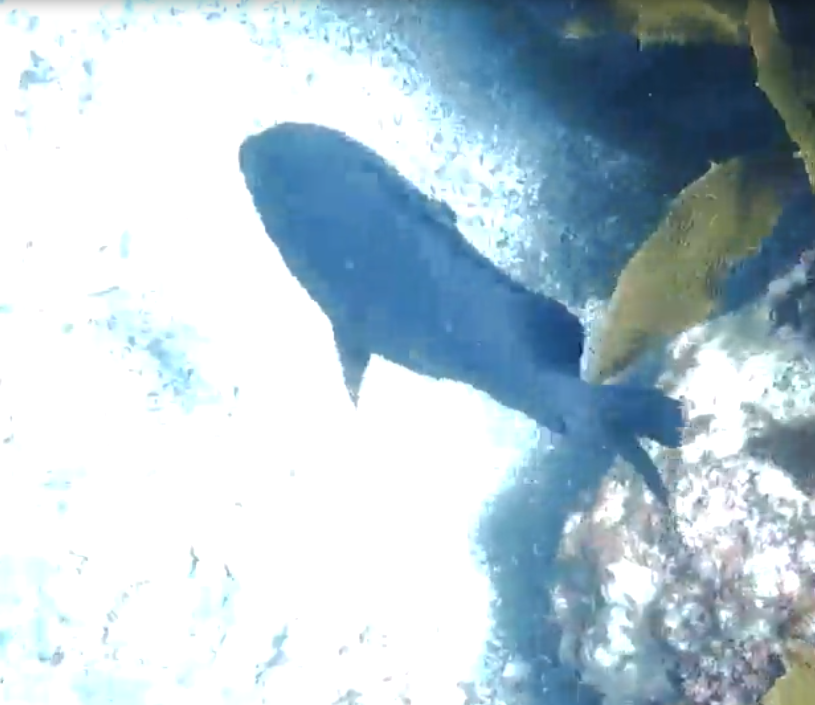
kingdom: Animalia
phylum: Chordata
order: Perciformes
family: Pomacentridae
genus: Parma
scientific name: Parma alboscapularis
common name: Black angelfish
